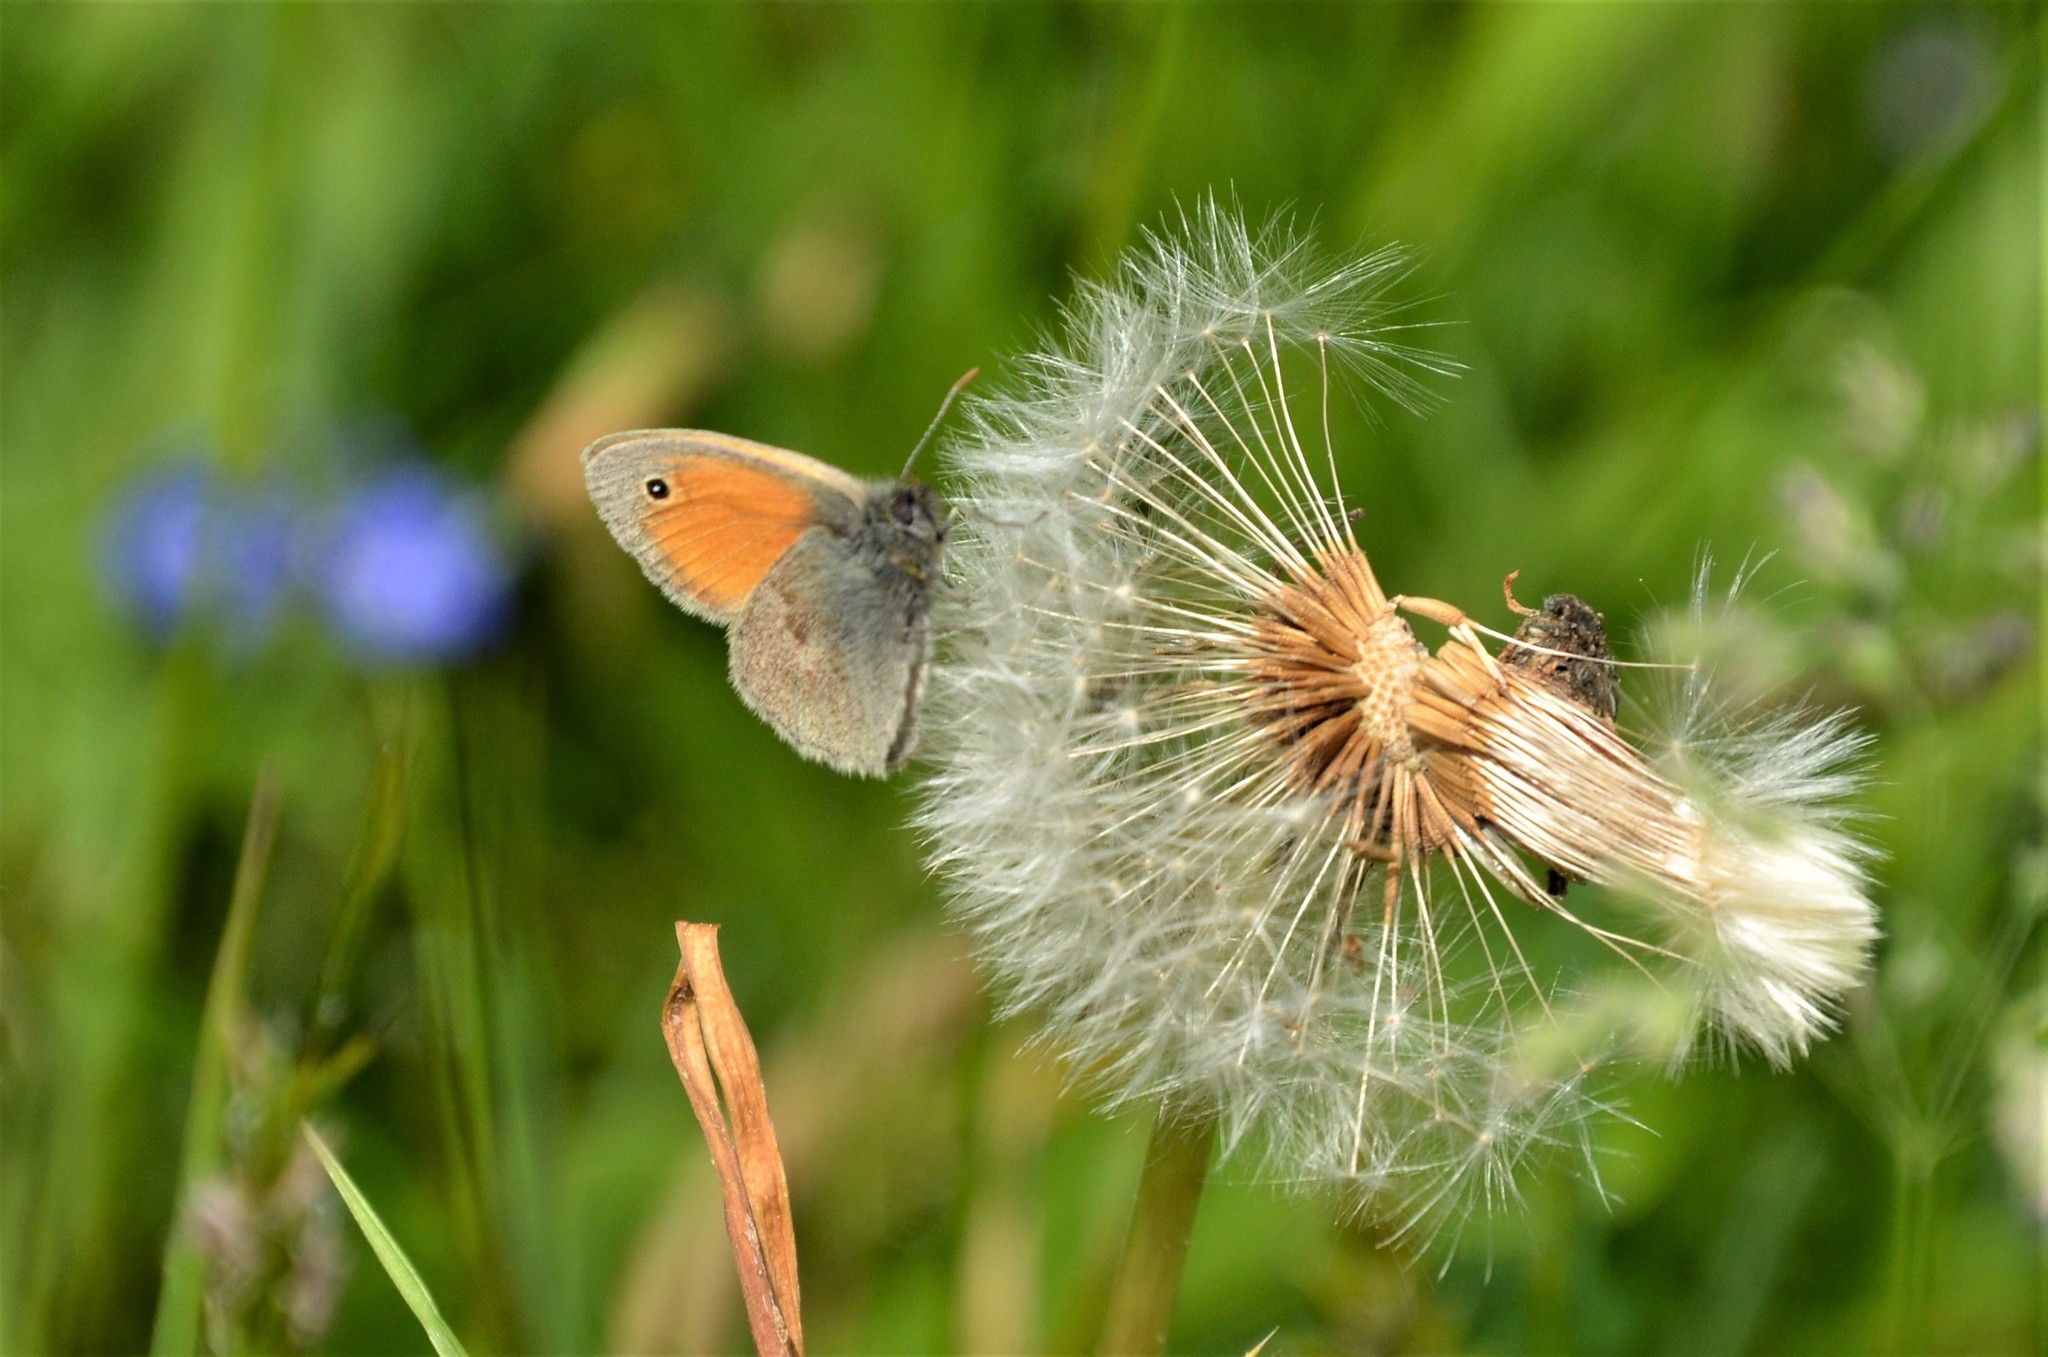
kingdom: Animalia
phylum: Arthropoda
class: Insecta
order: Lepidoptera
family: Nymphalidae
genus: Coenonympha
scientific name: Coenonympha pamphilus
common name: Small heath
